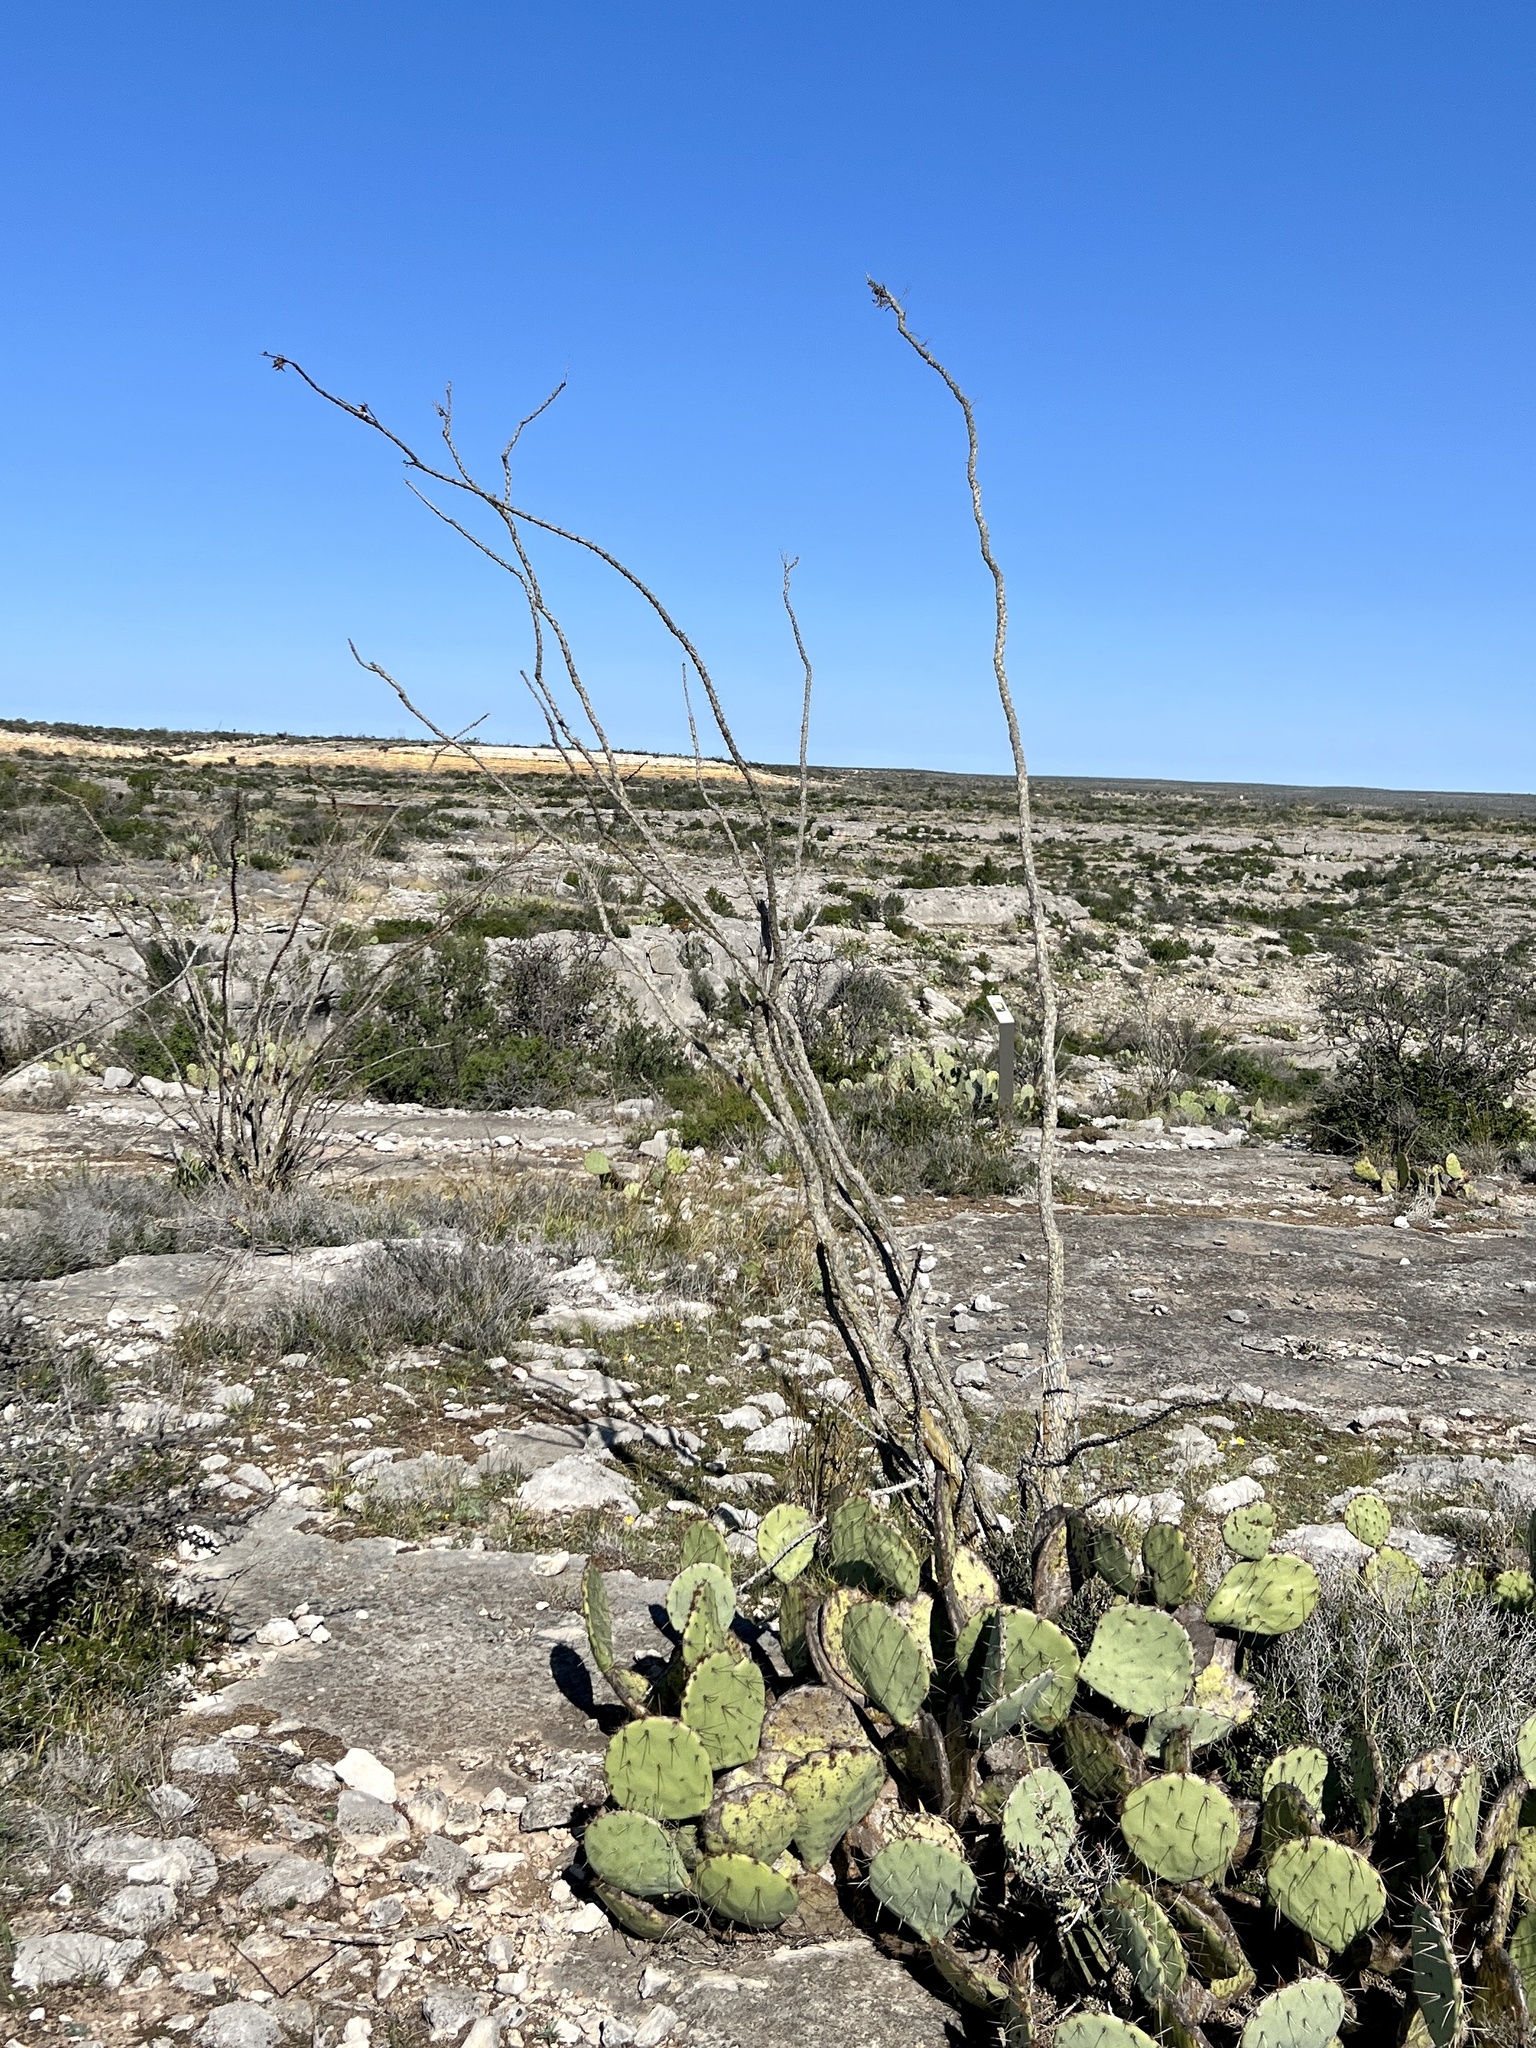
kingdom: Plantae
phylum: Tracheophyta
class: Magnoliopsida
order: Ericales
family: Fouquieriaceae
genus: Fouquieria
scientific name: Fouquieria splendens
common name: Vine-cactus
